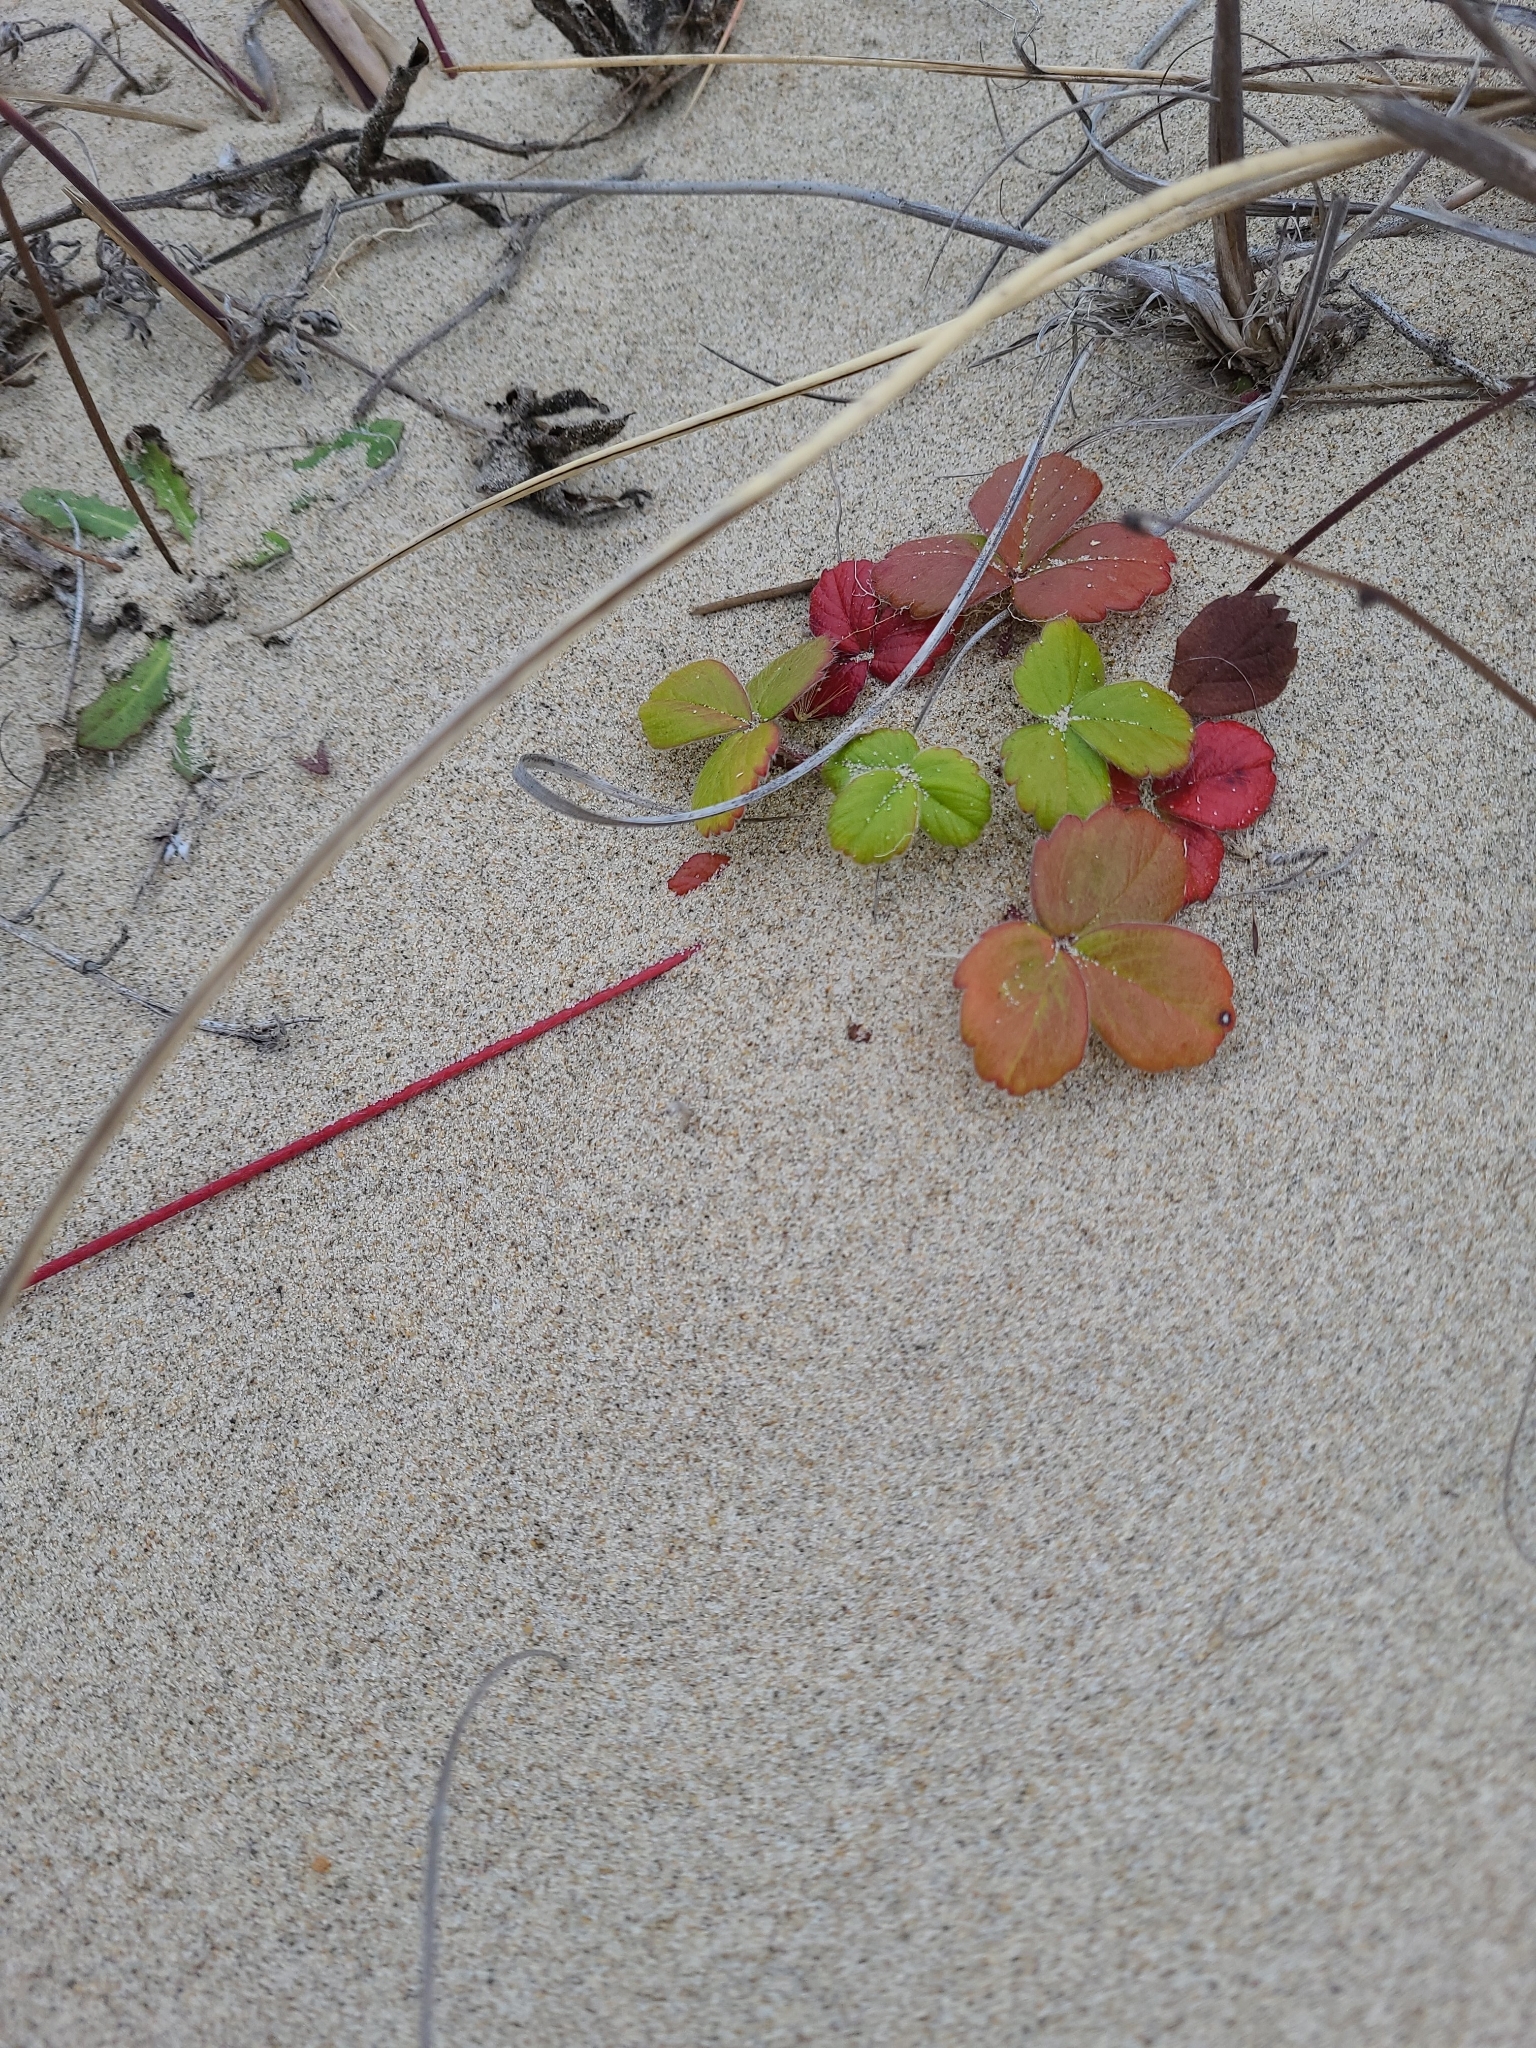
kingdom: Plantae
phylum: Tracheophyta
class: Magnoliopsida
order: Rosales
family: Rosaceae
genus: Fragaria
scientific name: Fragaria chiloensis
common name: Beach strawberry
